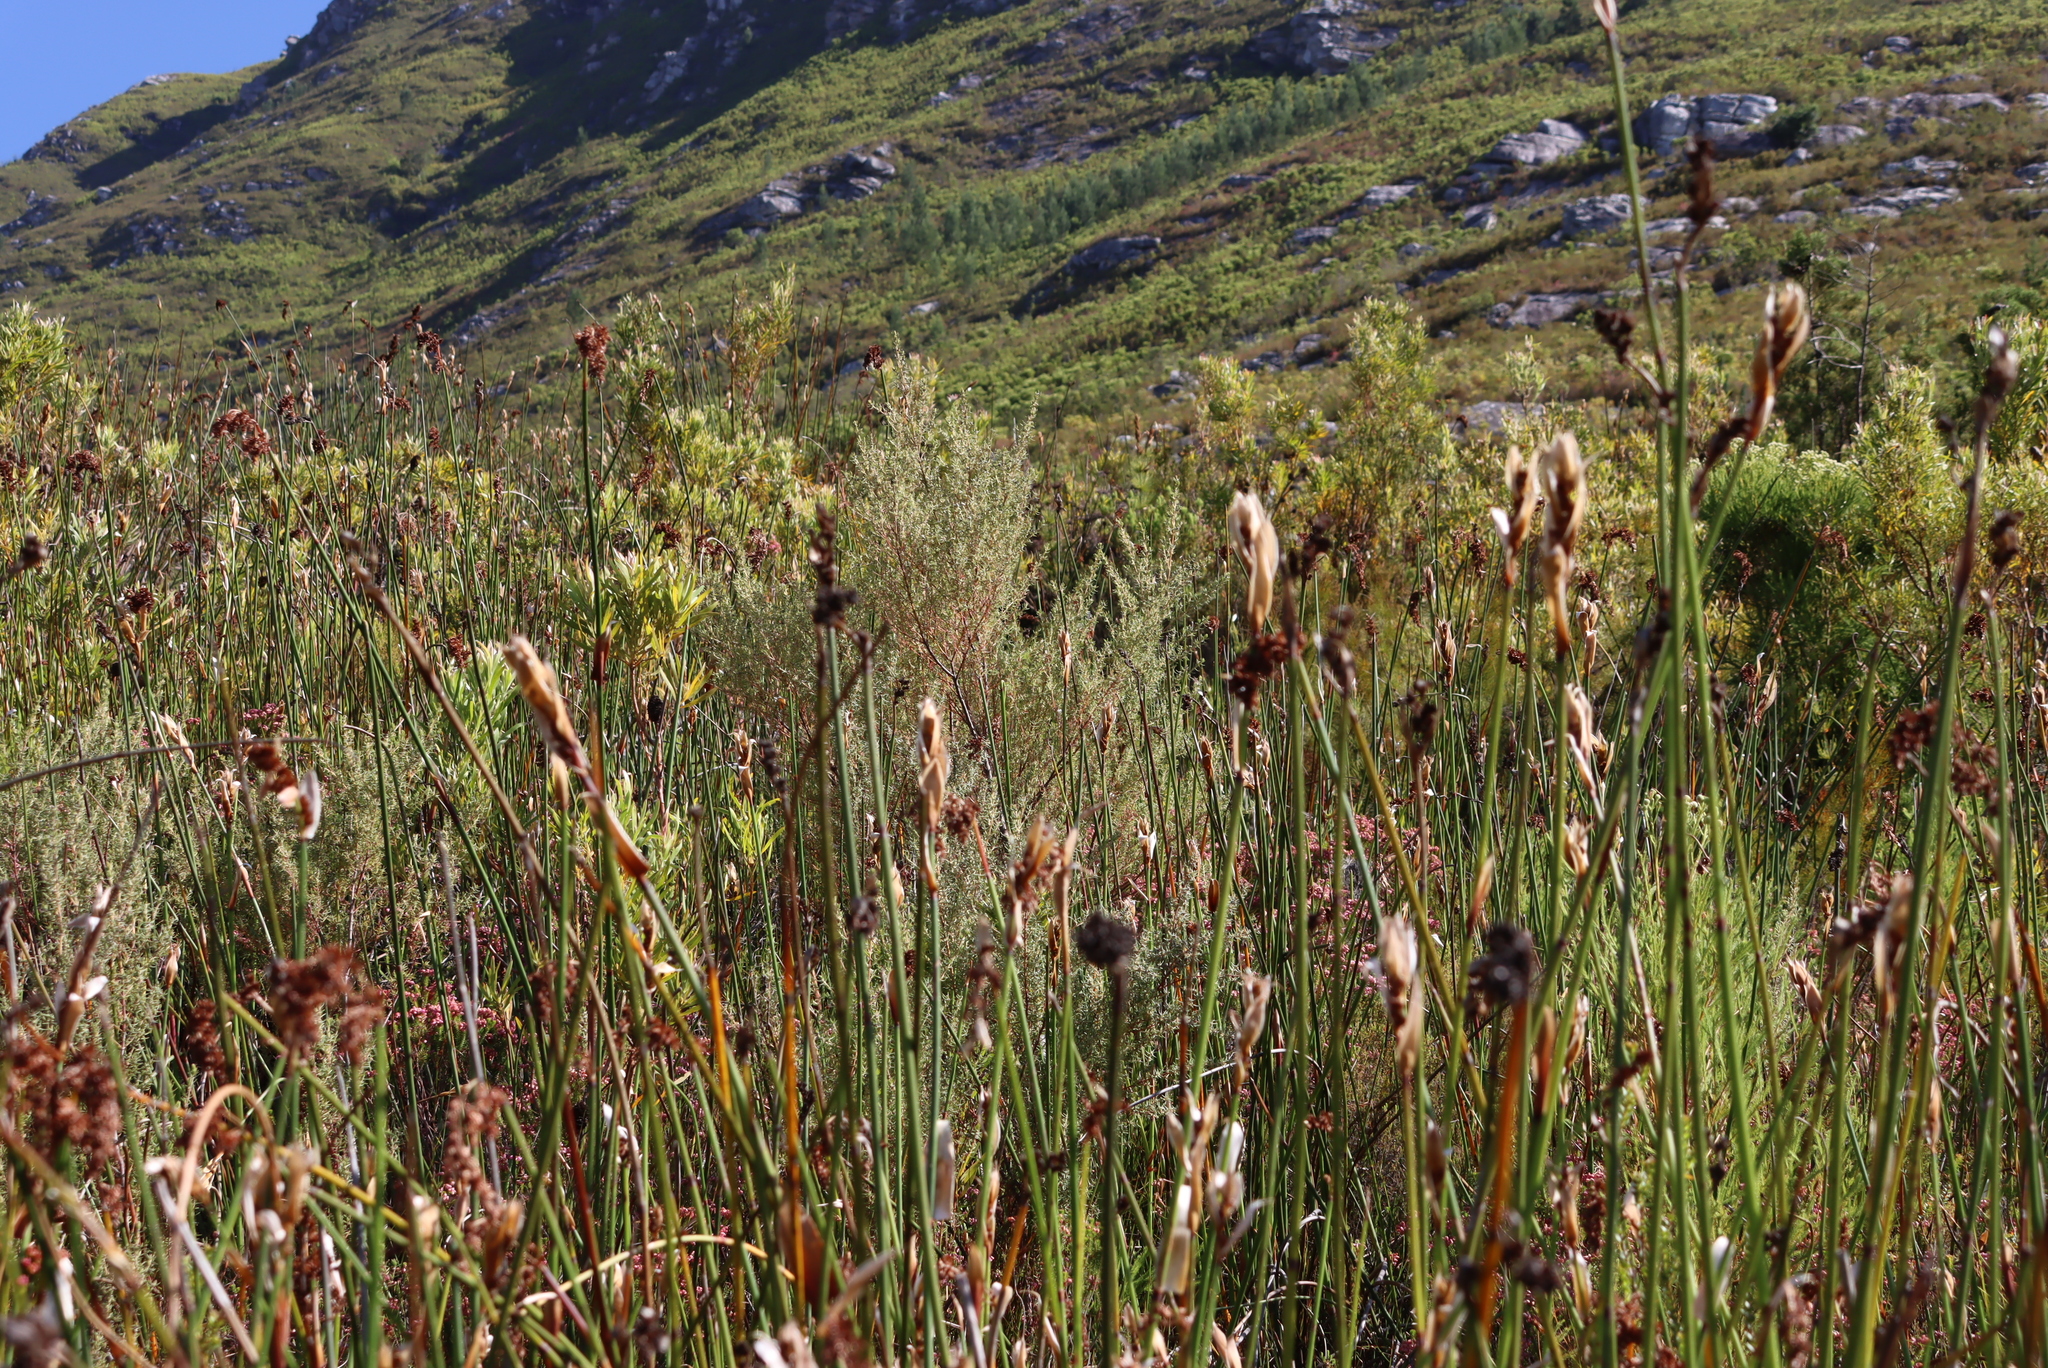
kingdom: Plantae
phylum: Tracheophyta
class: Magnoliopsida
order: Cornales
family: Grubbiaceae
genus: Grubbia
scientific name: Grubbia rosmarinifolia
